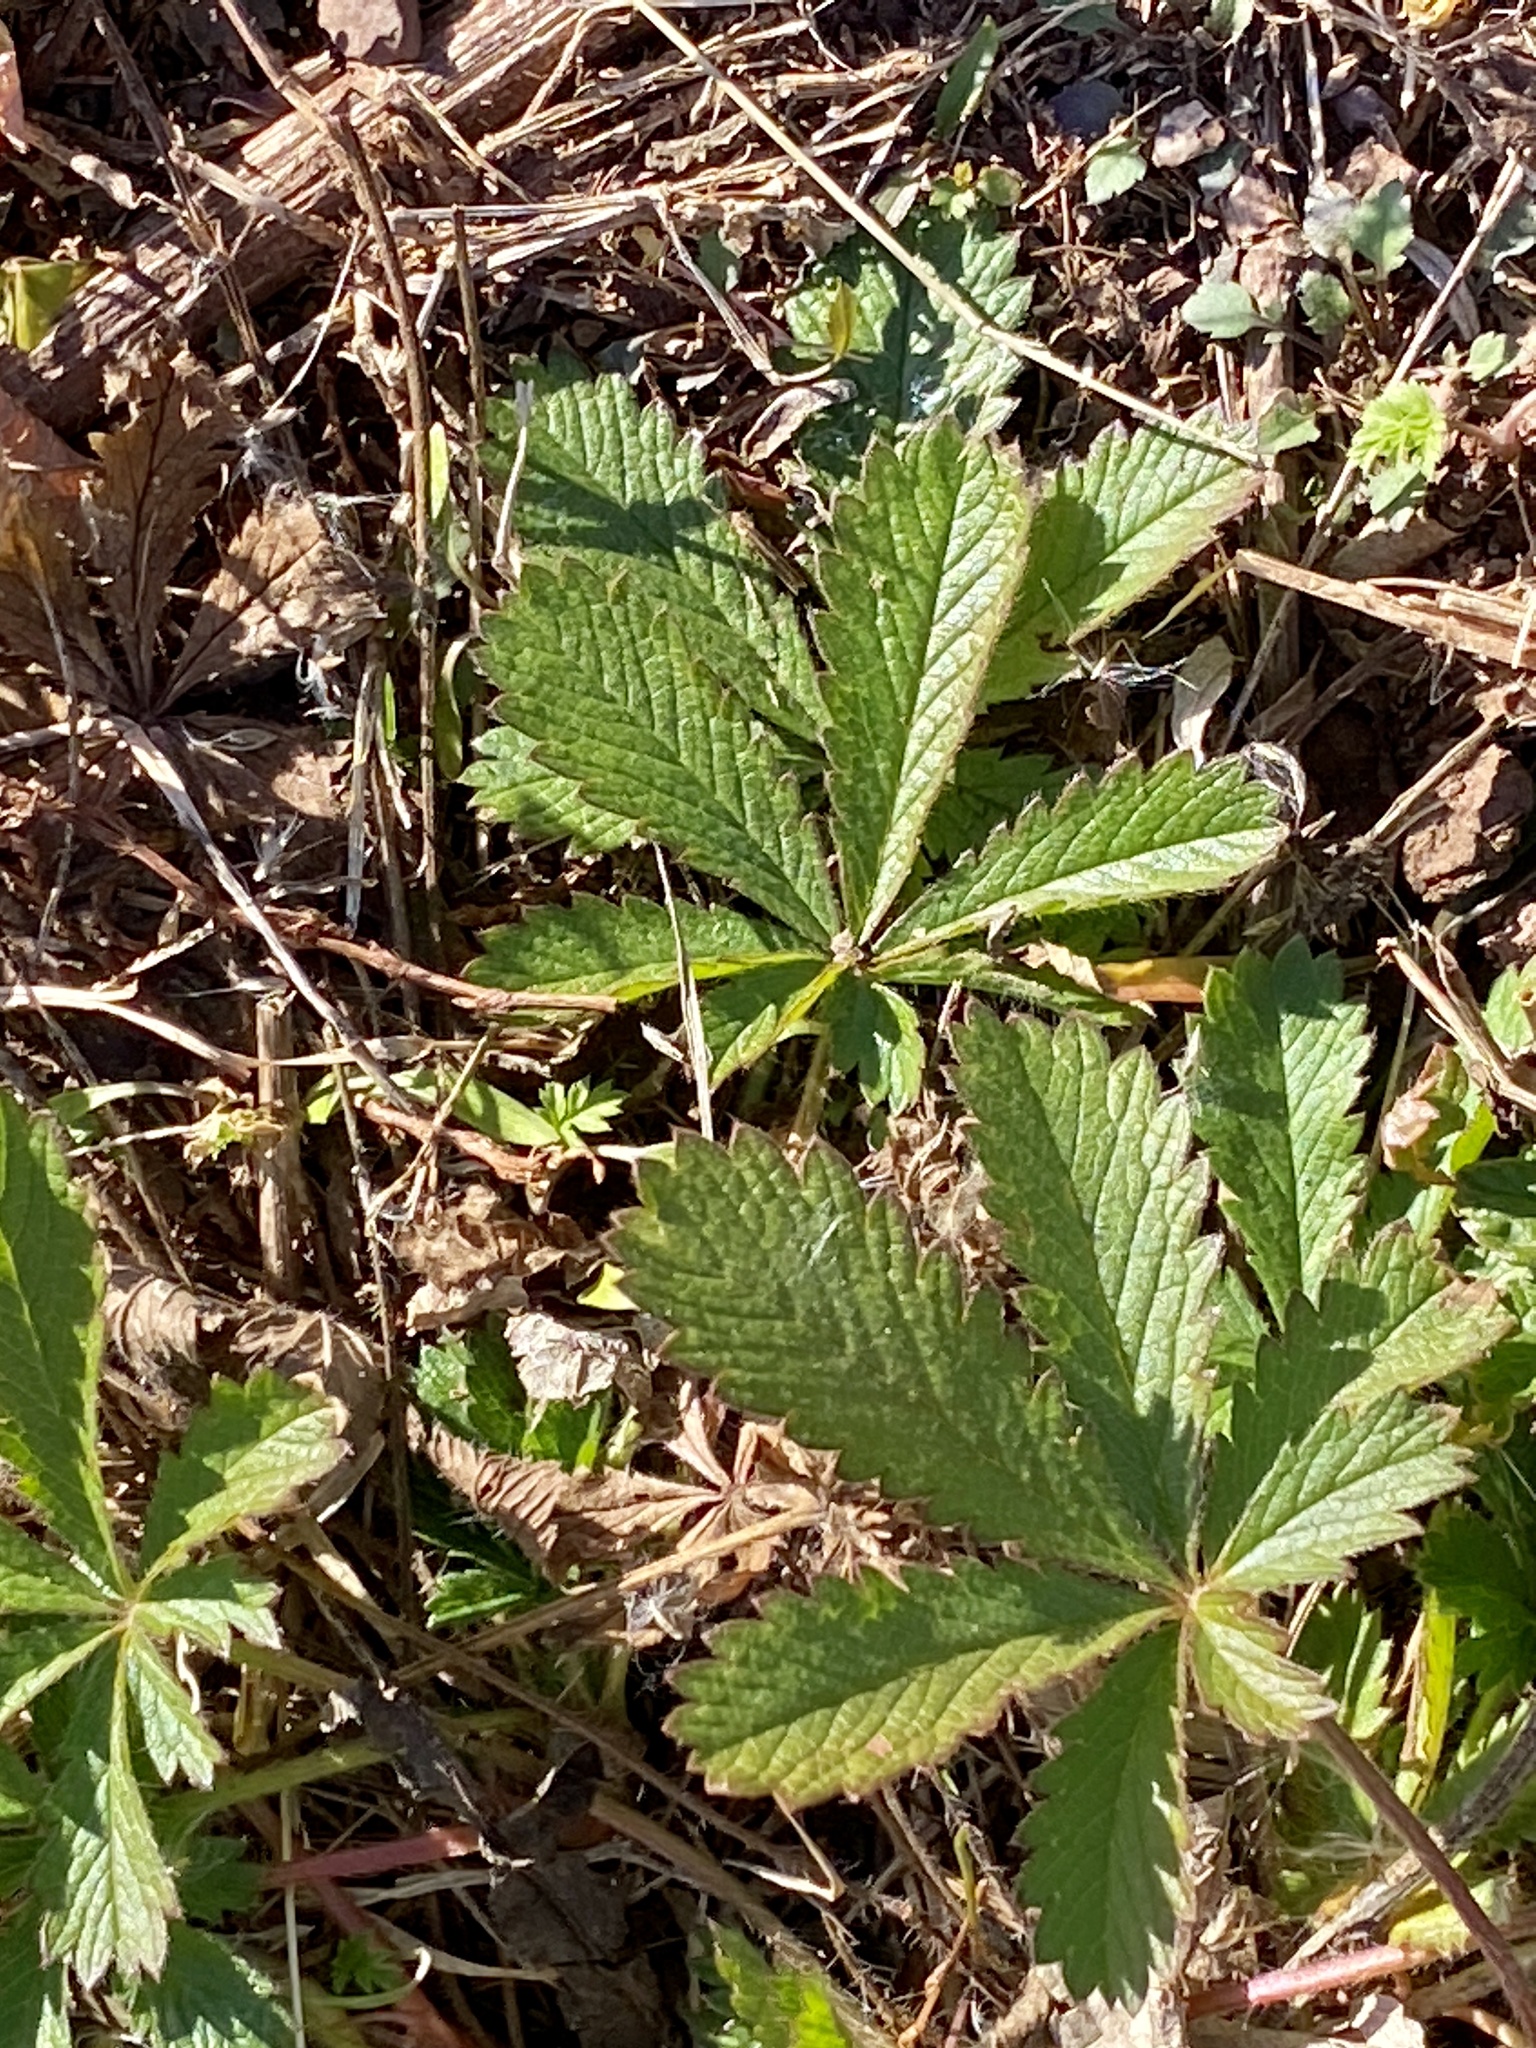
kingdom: Plantae
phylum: Tracheophyta
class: Magnoliopsida
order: Rosales
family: Rosaceae
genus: Potentilla
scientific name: Potentilla recta
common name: Sulphur cinquefoil
